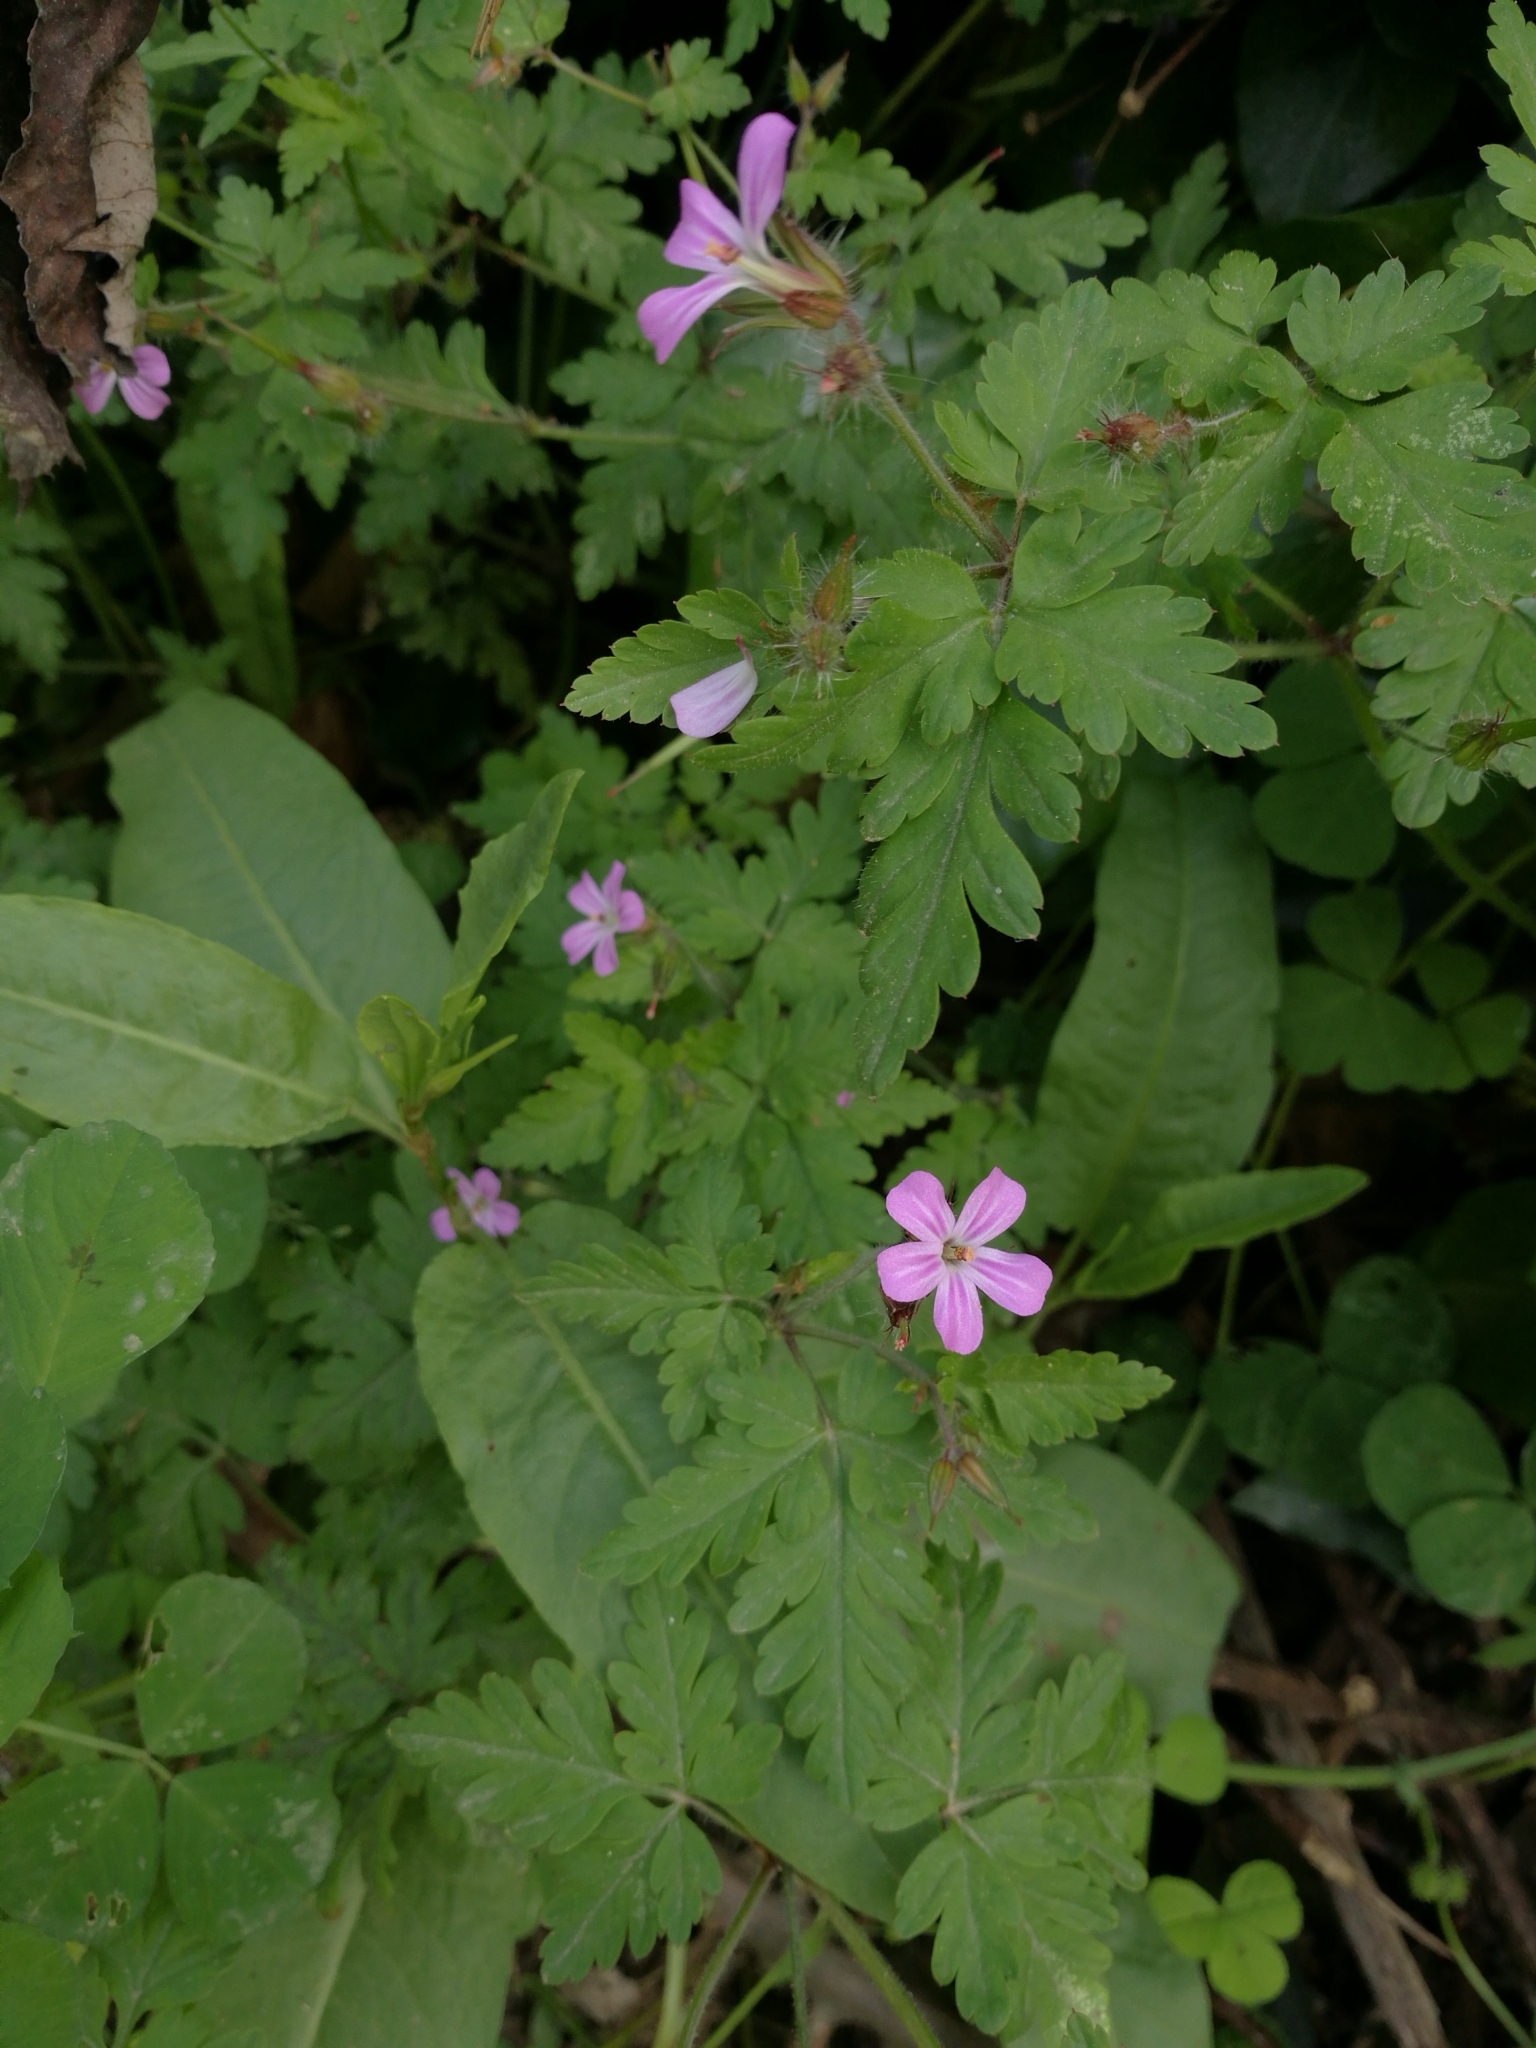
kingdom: Plantae
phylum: Tracheophyta
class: Magnoliopsida
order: Geraniales
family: Geraniaceae
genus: Geranium
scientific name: Geranium robertianum
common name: Herb-robert
